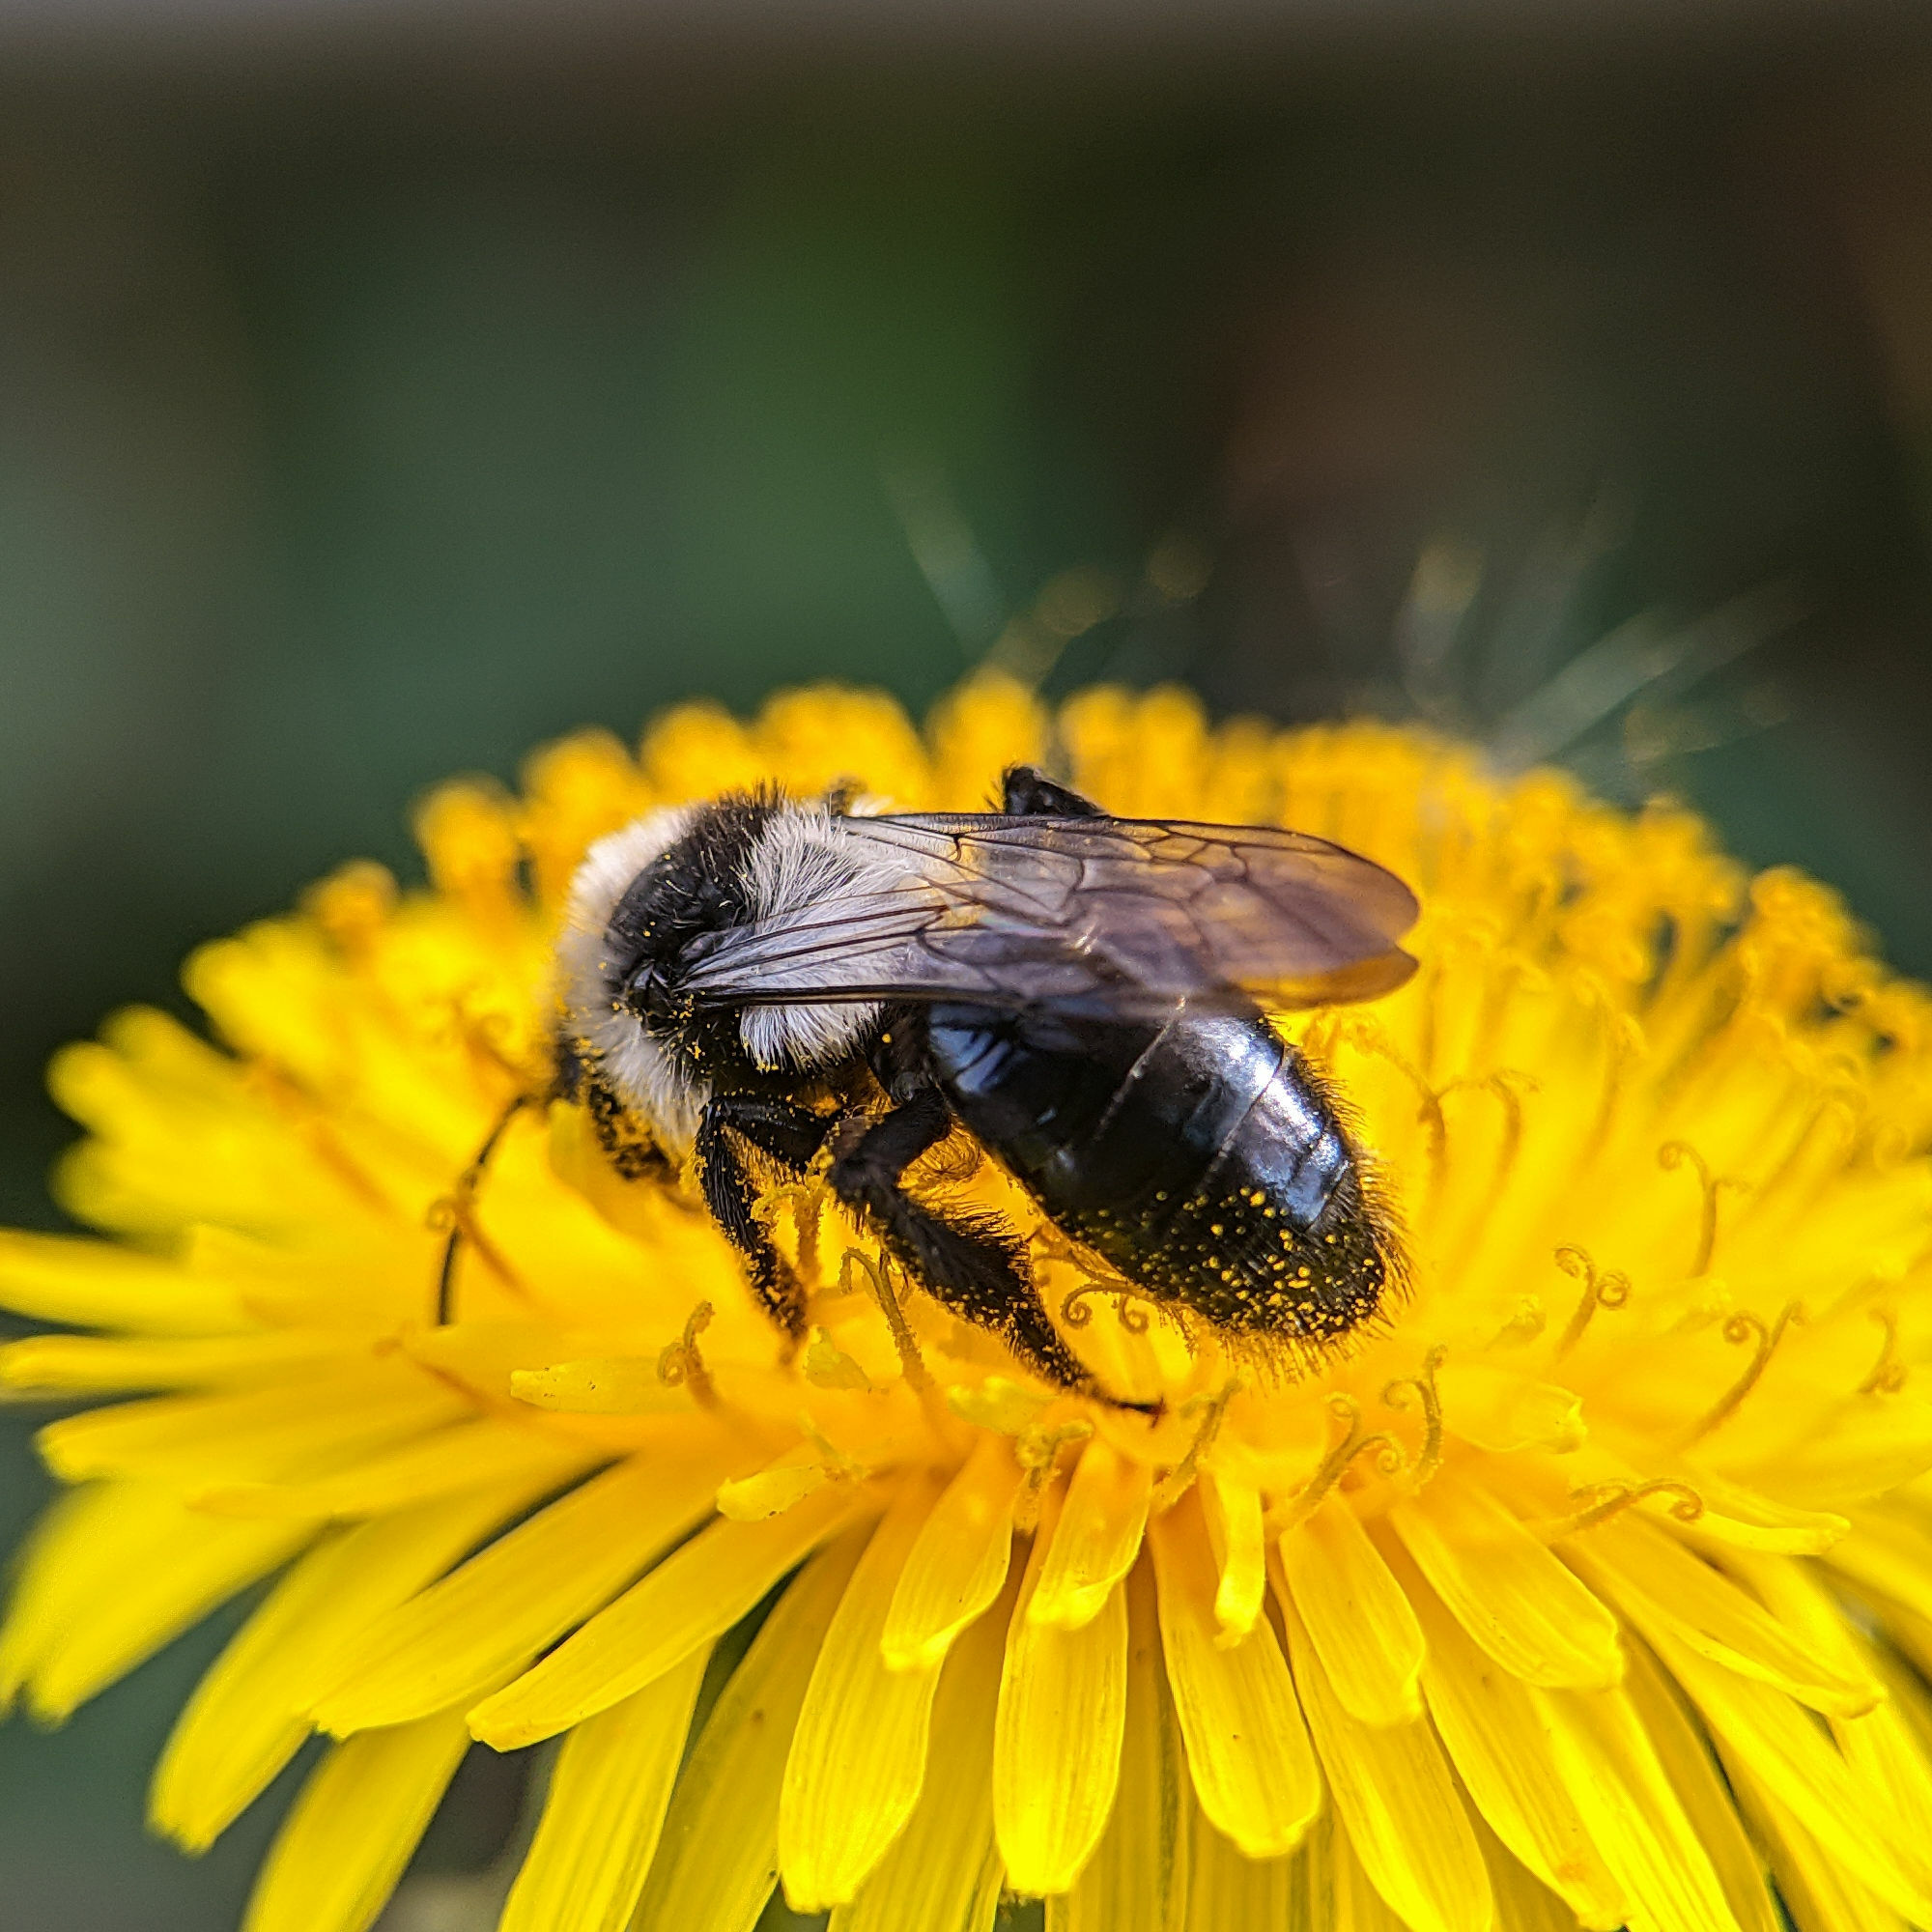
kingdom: Animalia
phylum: Arthropoda
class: Insecta
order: Hymenoptera
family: Andrenidae
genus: Andrena
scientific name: Andrena cineraria
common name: Ashy mining bee
